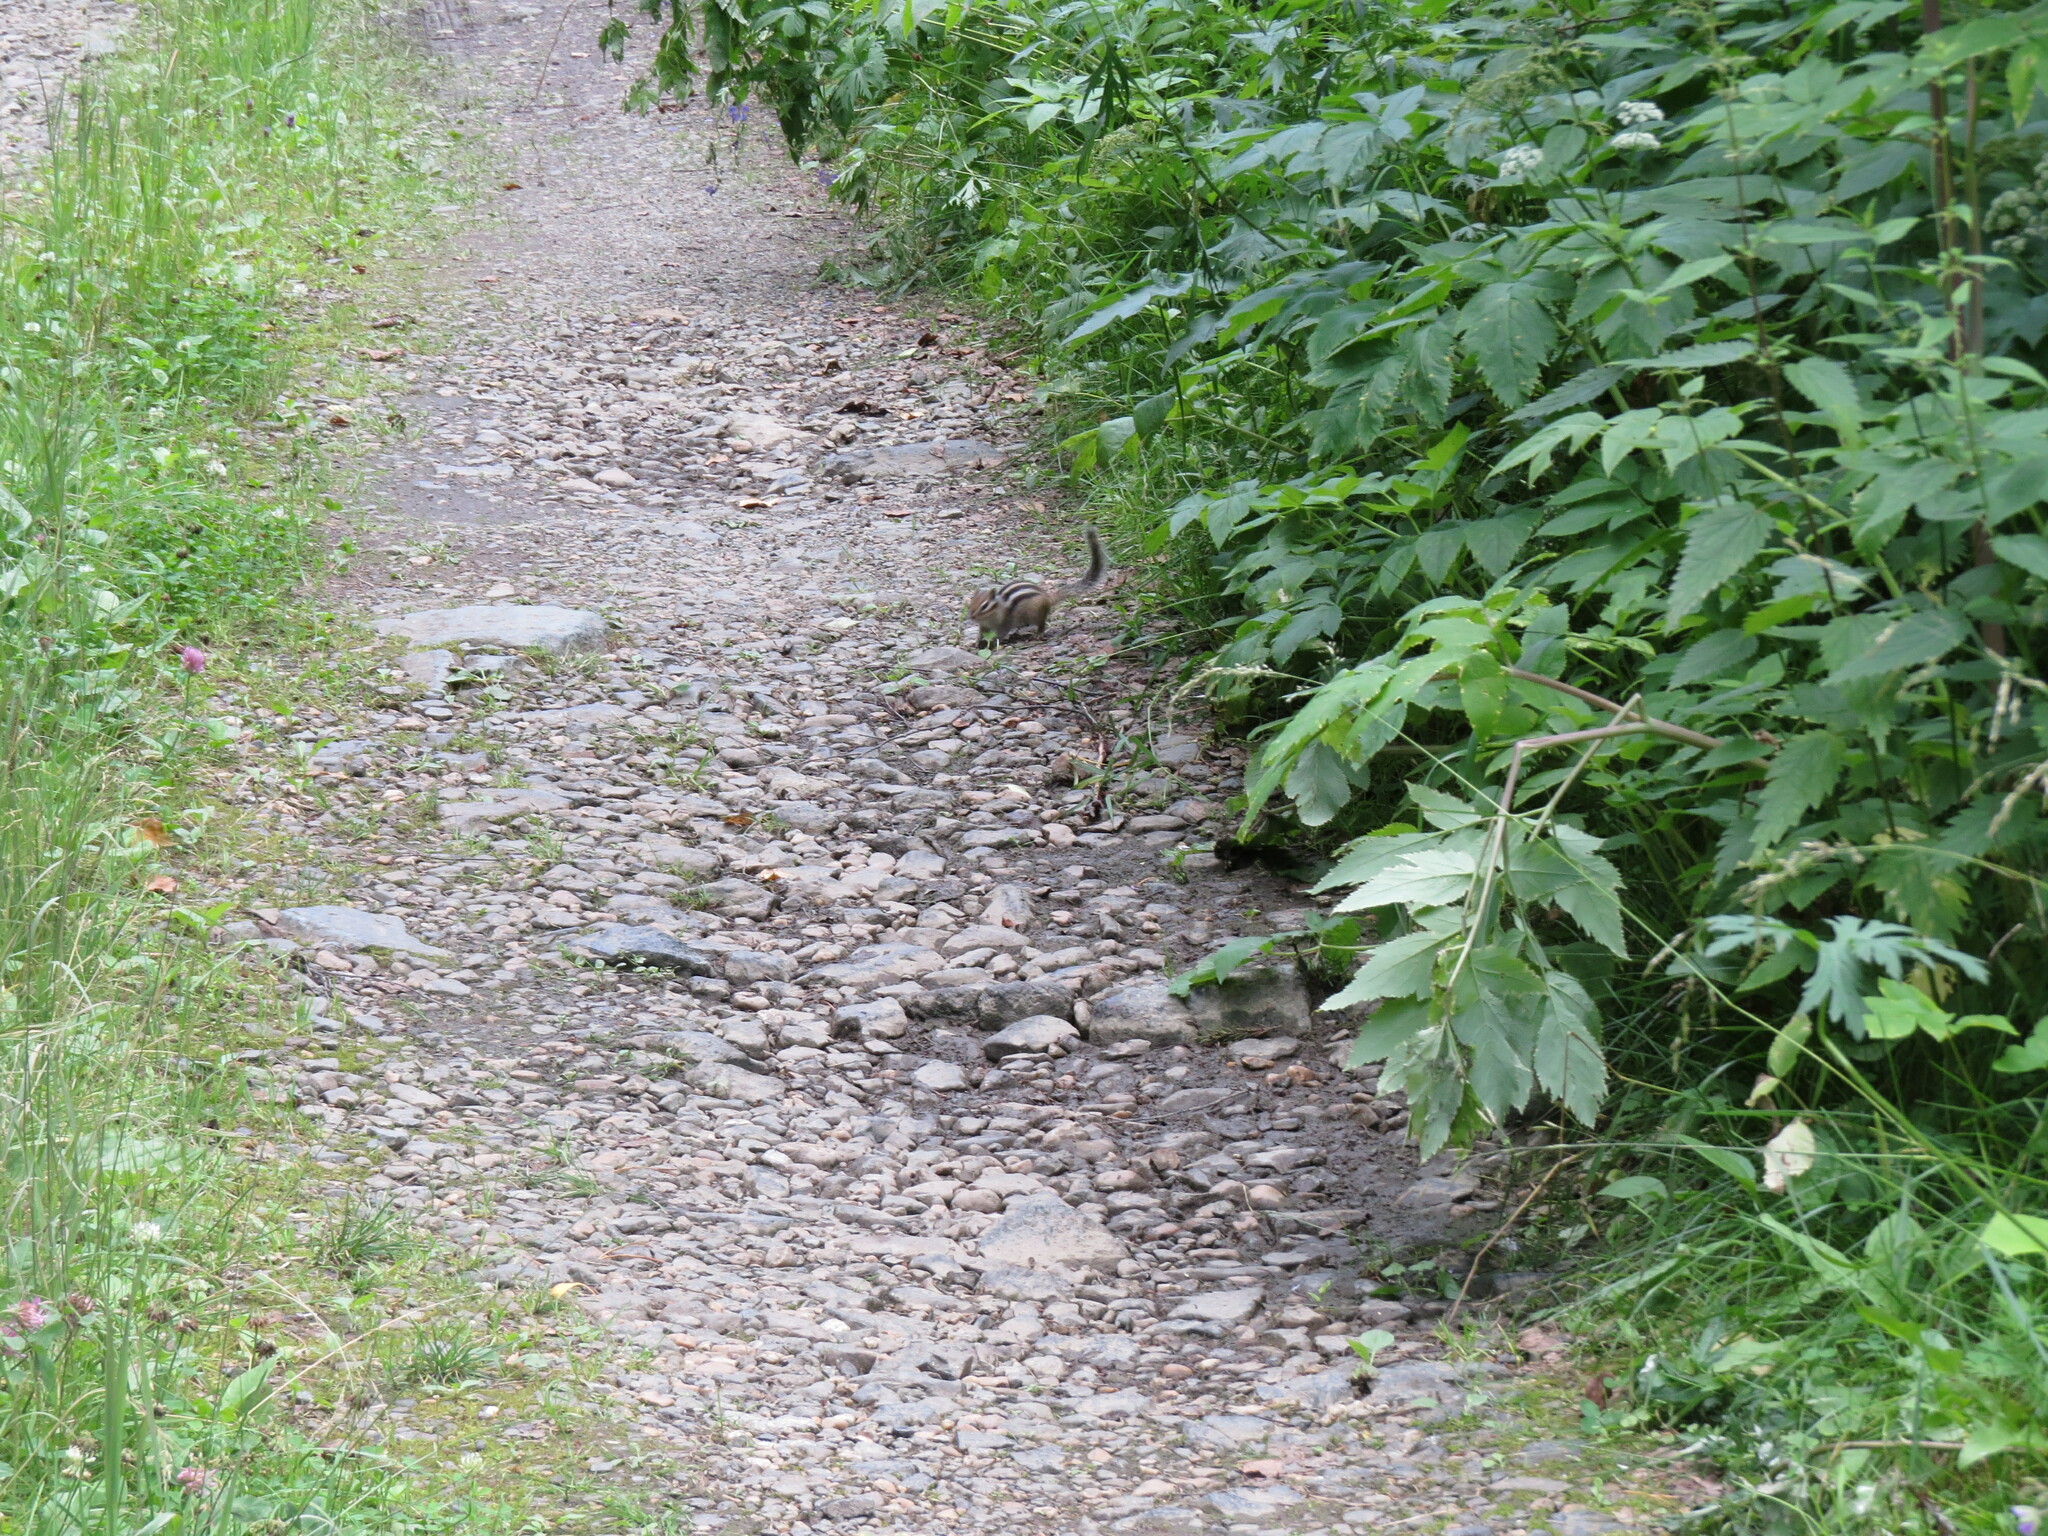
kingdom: Animalia
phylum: Chordata
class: Mammalia
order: Rodentia
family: Sciuridae
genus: Tamias
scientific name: Tamias sibiricus
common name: Siberian chipmunk
